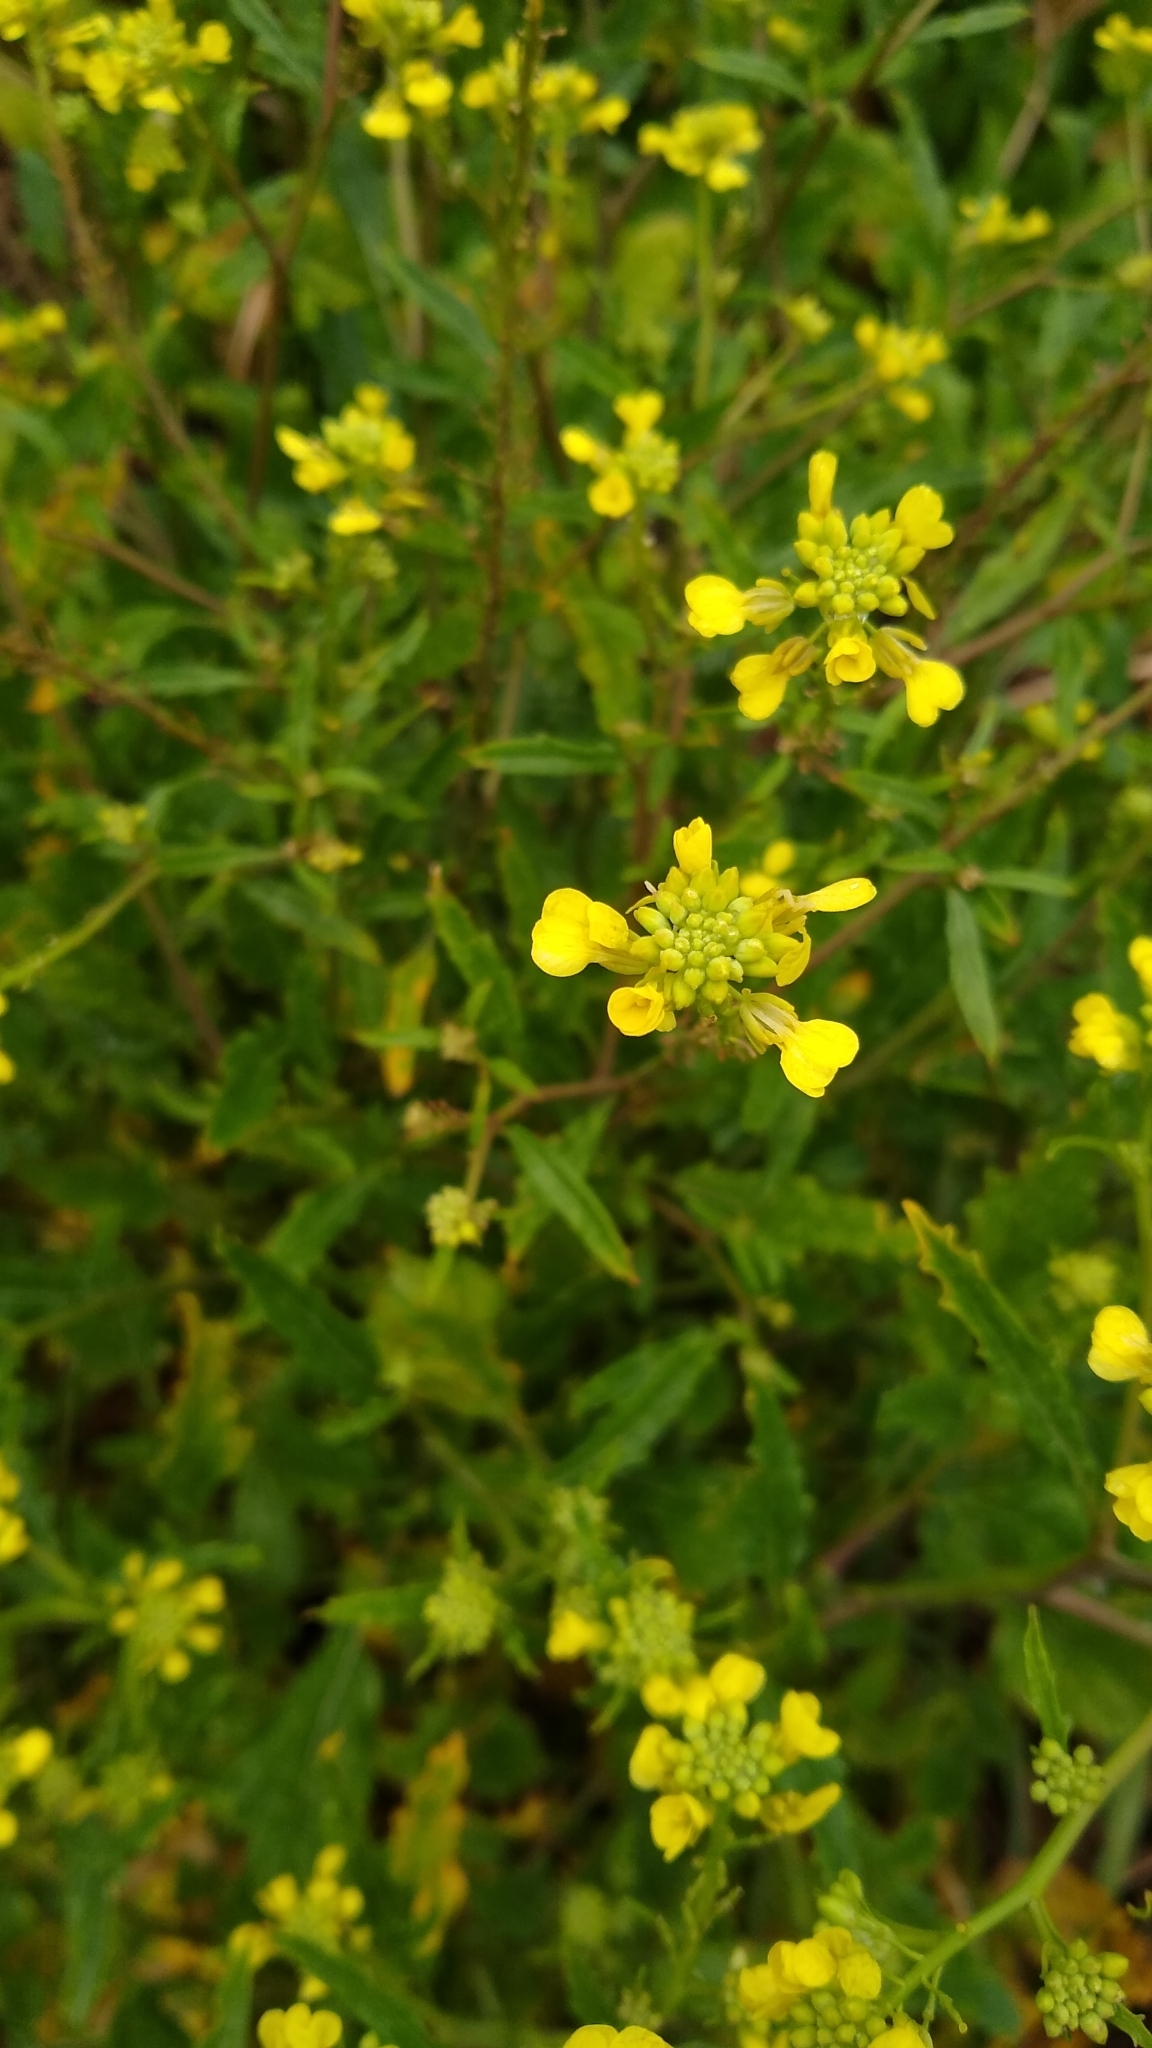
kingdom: Plantae
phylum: Tracheophyta
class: Magnoliopsida
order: Brassicales
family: Brassicaceae
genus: Rapistrum
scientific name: Rapistrum rugosum
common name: Annual bastardcabbage
